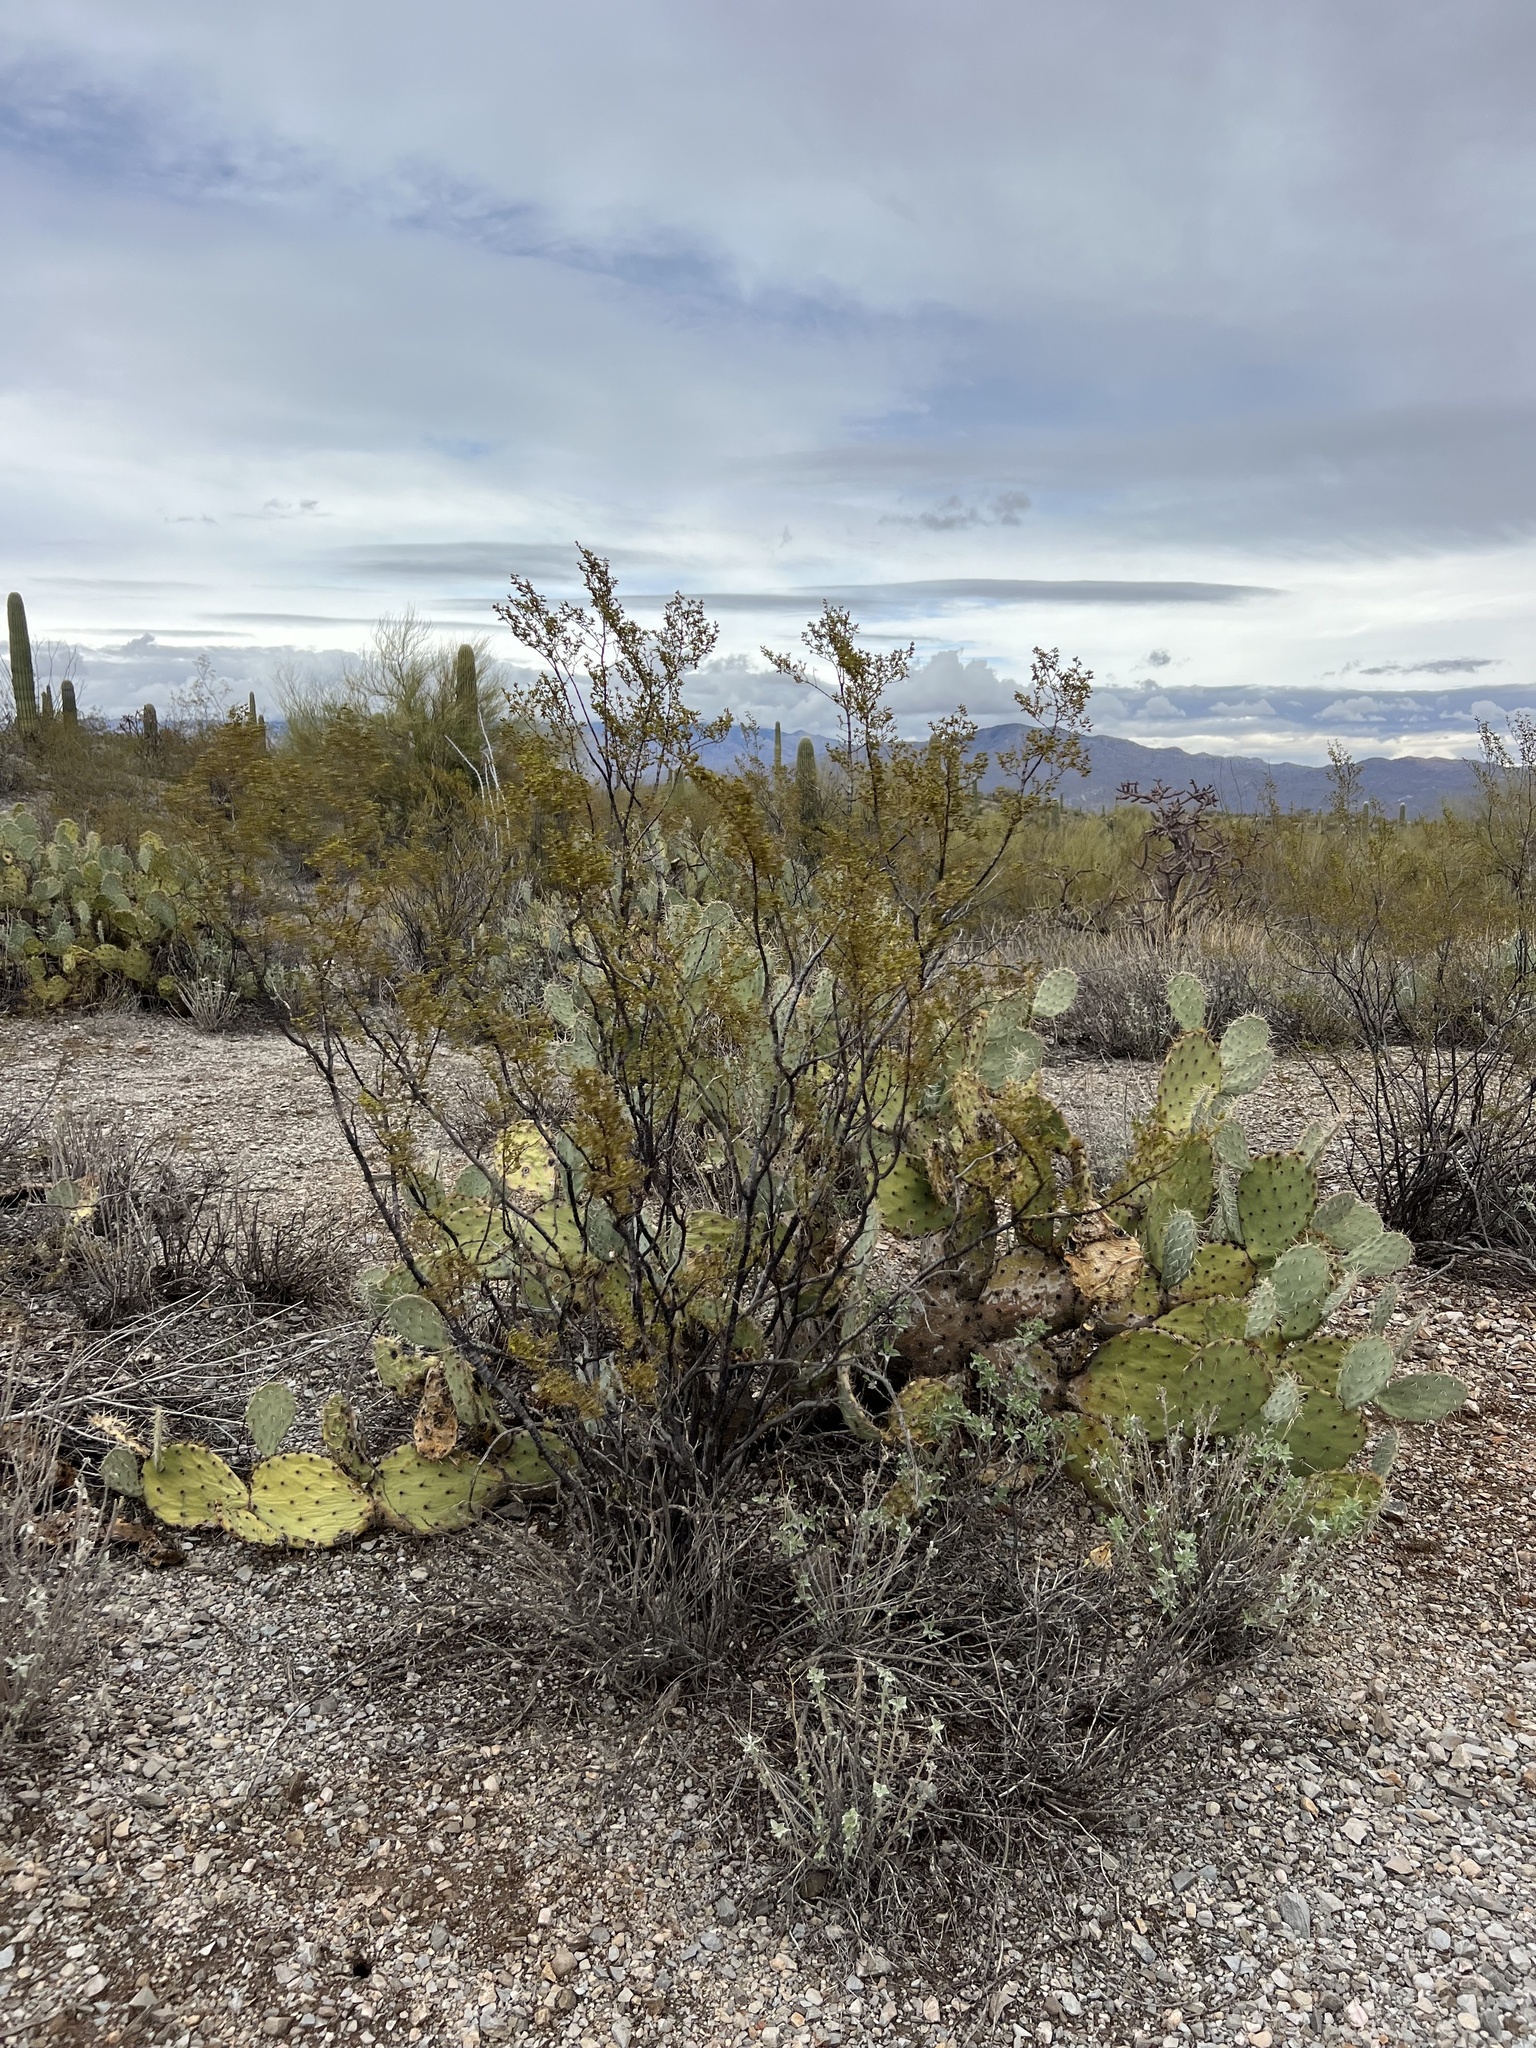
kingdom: Plantae
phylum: Tracheophyta
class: Magnoliopsida
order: Zygophyllales
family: Zygophyllaceae
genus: Larrea
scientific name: Larrea tridentata
